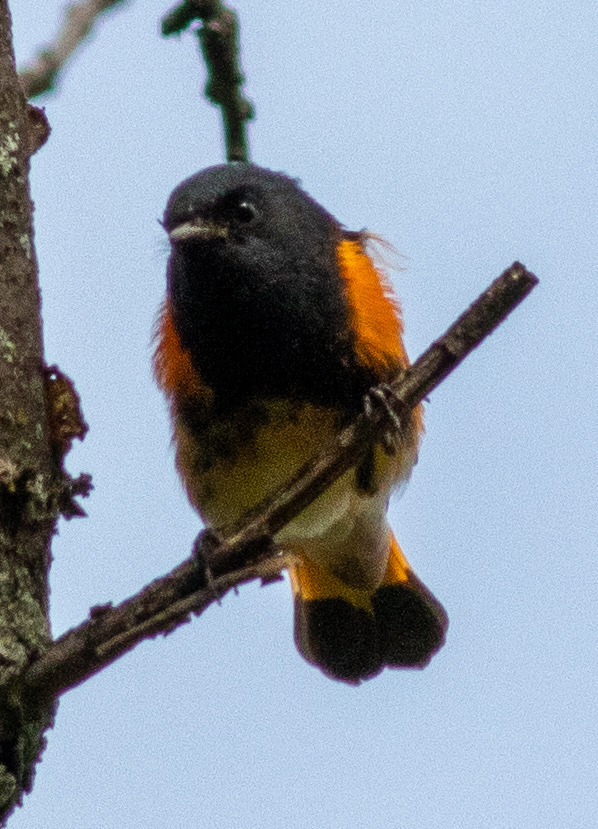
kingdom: Animalia
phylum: Chordata
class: Aves
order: Passeriformes
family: Parulidae
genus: Setophaga
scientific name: Setophaga ruticilla
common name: American redstart
